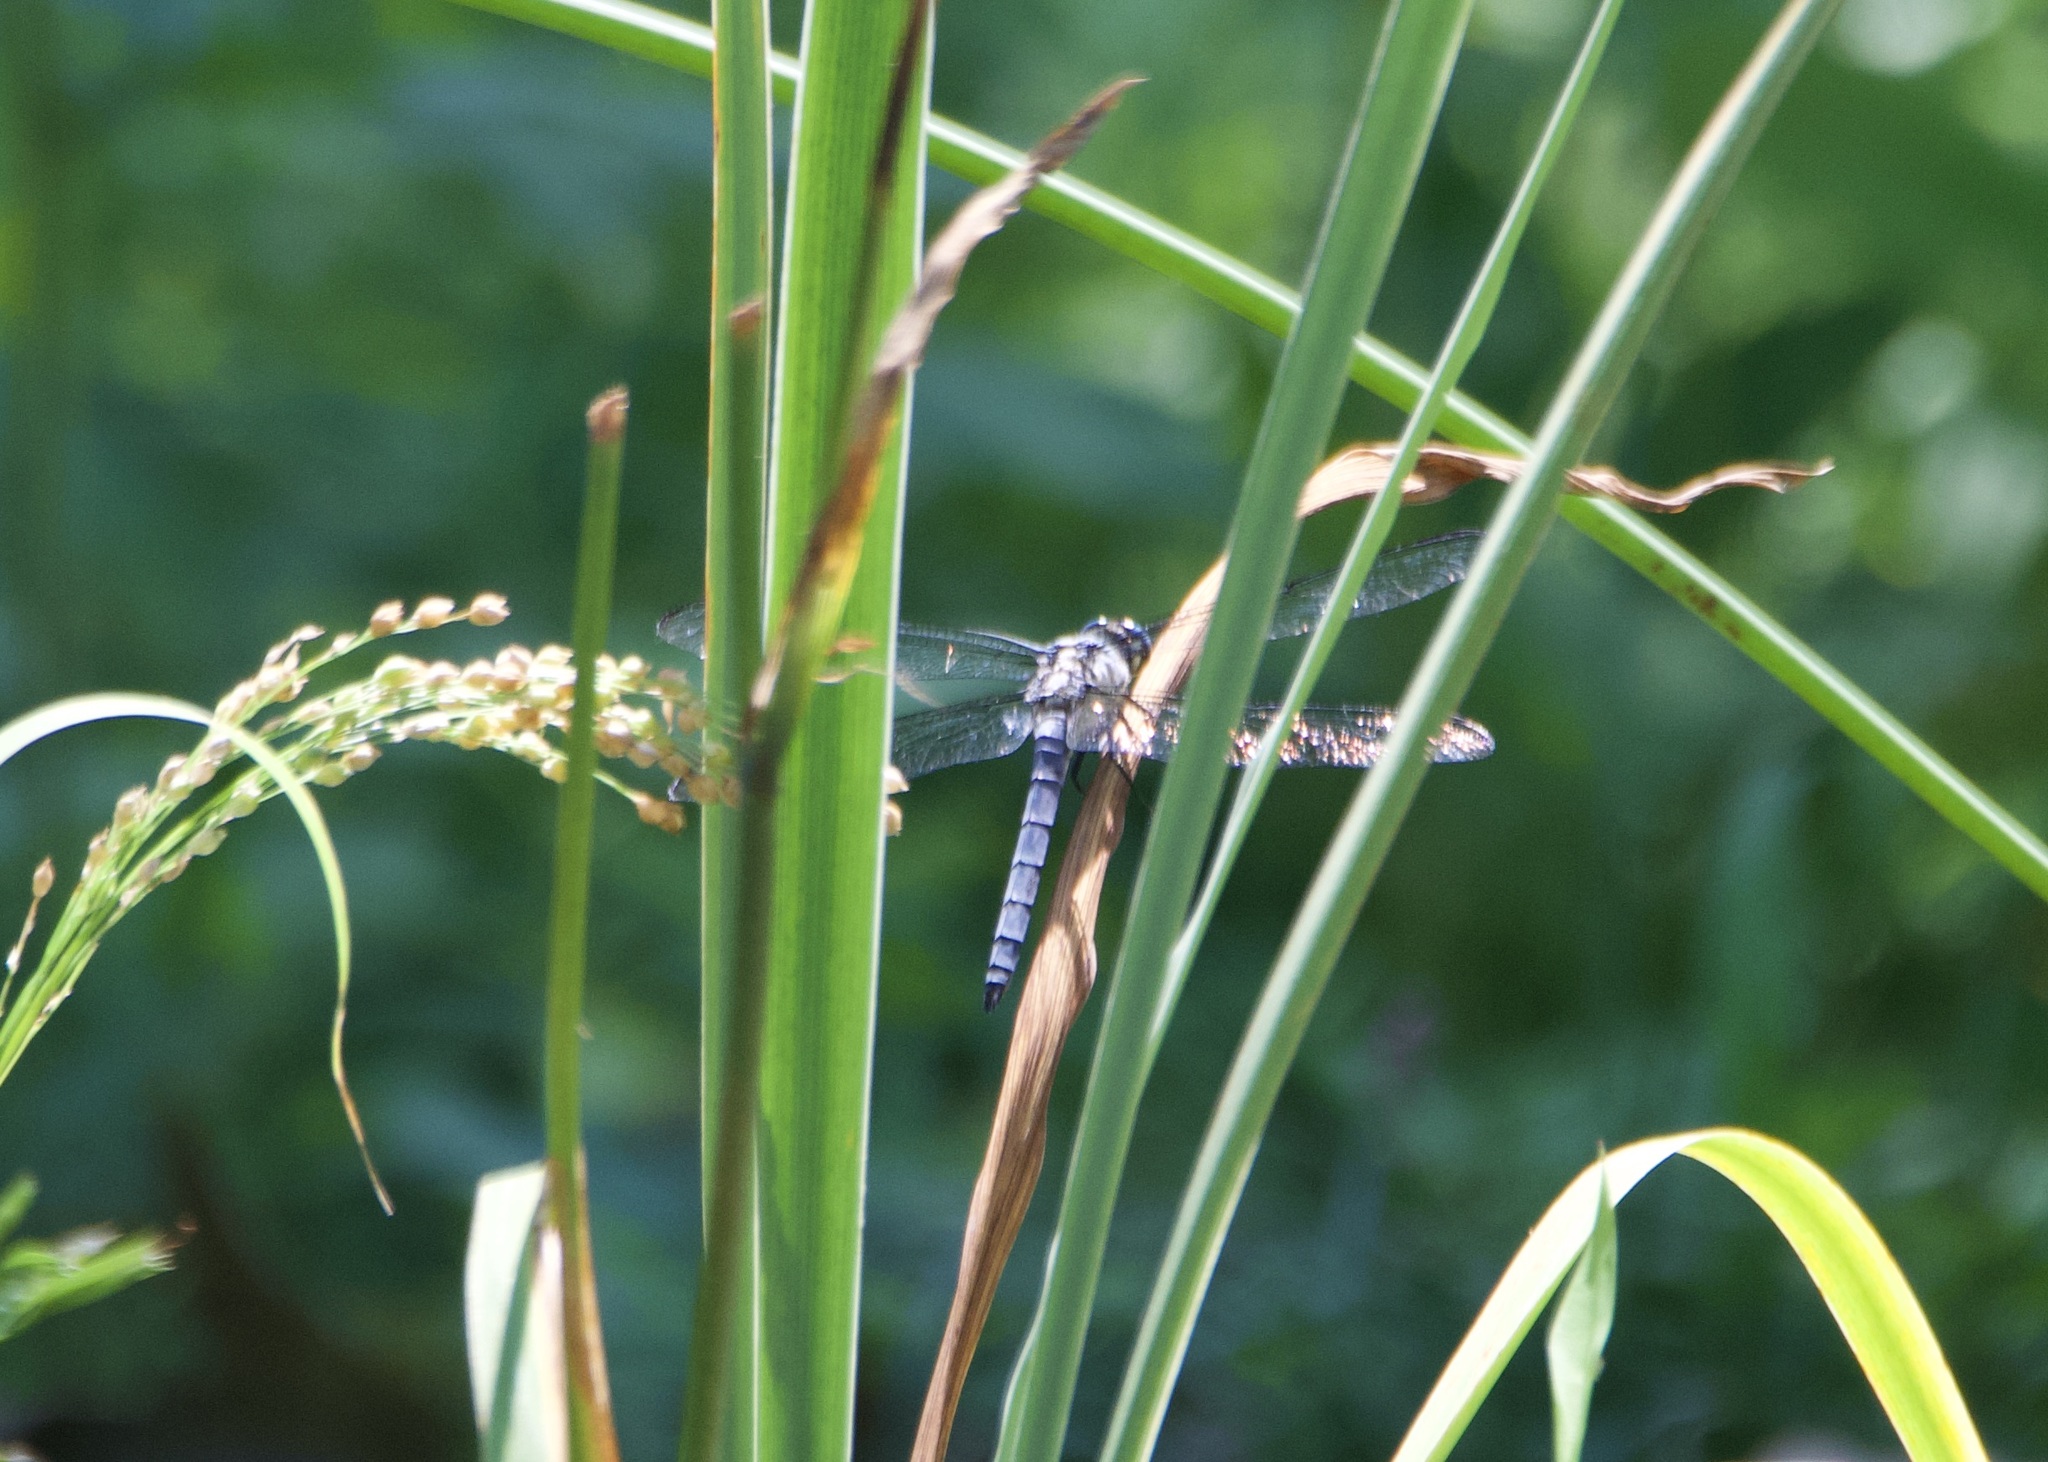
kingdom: Animalia
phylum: Arthropoda
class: Insecta
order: Odonata
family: Libellulidae
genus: Libellula
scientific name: Libellula vibrans
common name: Great blue skimmer
